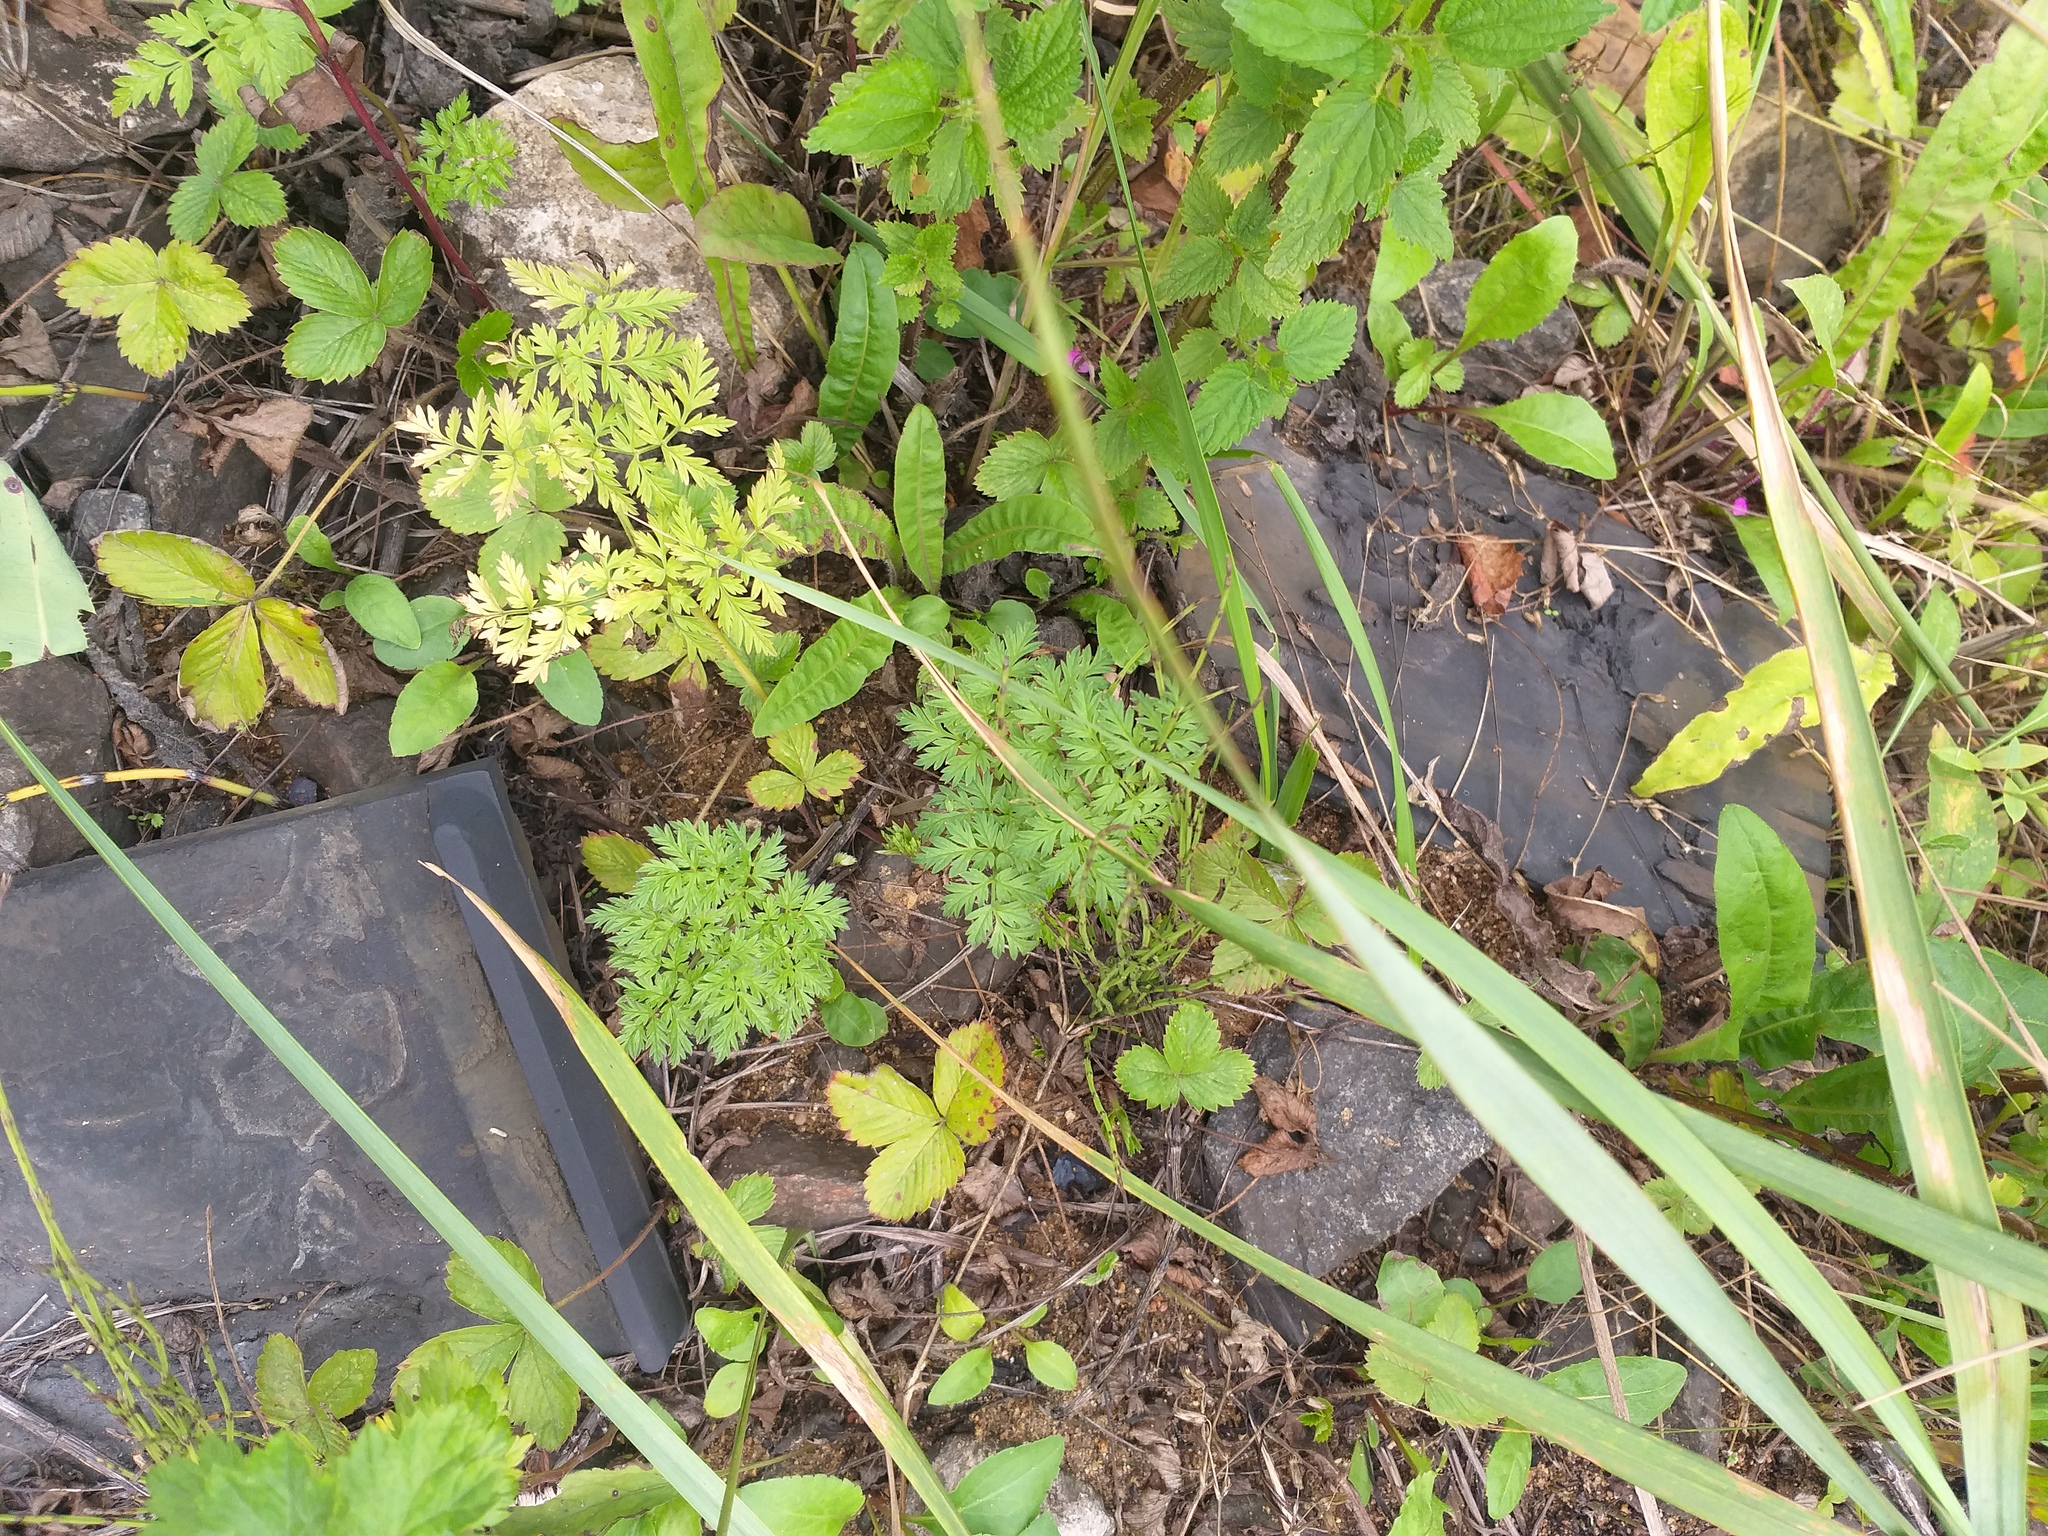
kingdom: Plantae
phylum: Tracheophyta
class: Magnoliopsida
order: Apiales
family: Apiaceae
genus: Anthriscus
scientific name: Anthriscus sylvestris
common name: Cow parsley
